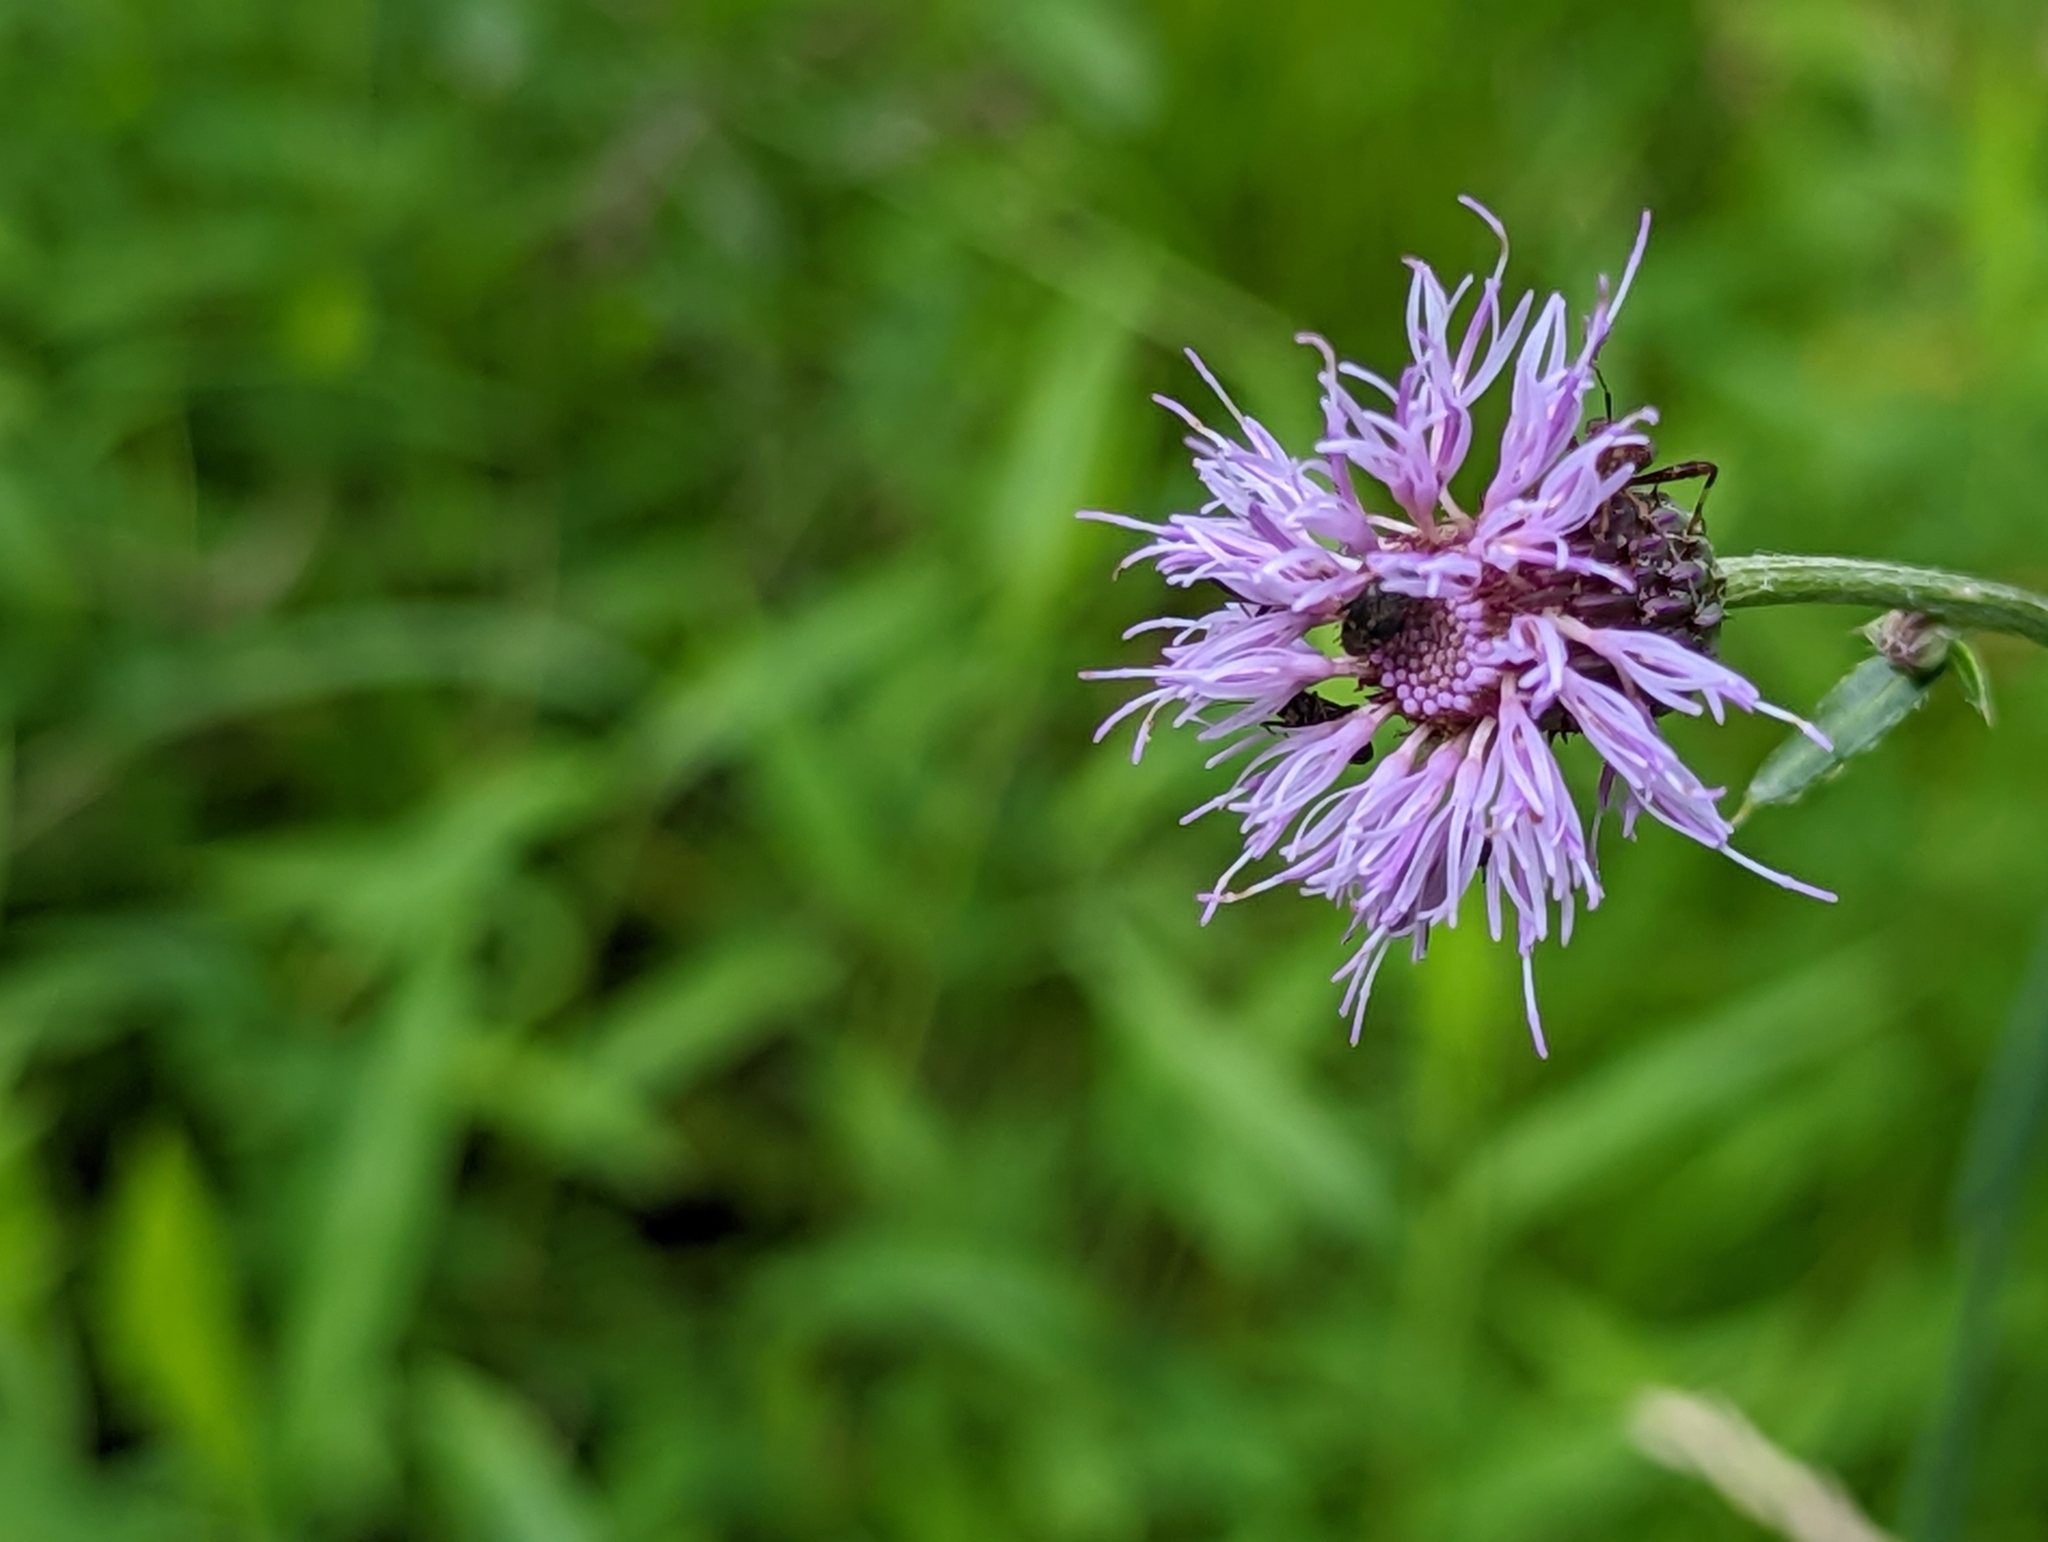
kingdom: Plantae
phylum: Tracheophyta
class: Magnoliopsida
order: Asterales
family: Asteraceae
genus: Cirsium
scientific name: Cirsium arvense
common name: Creeping thistle
